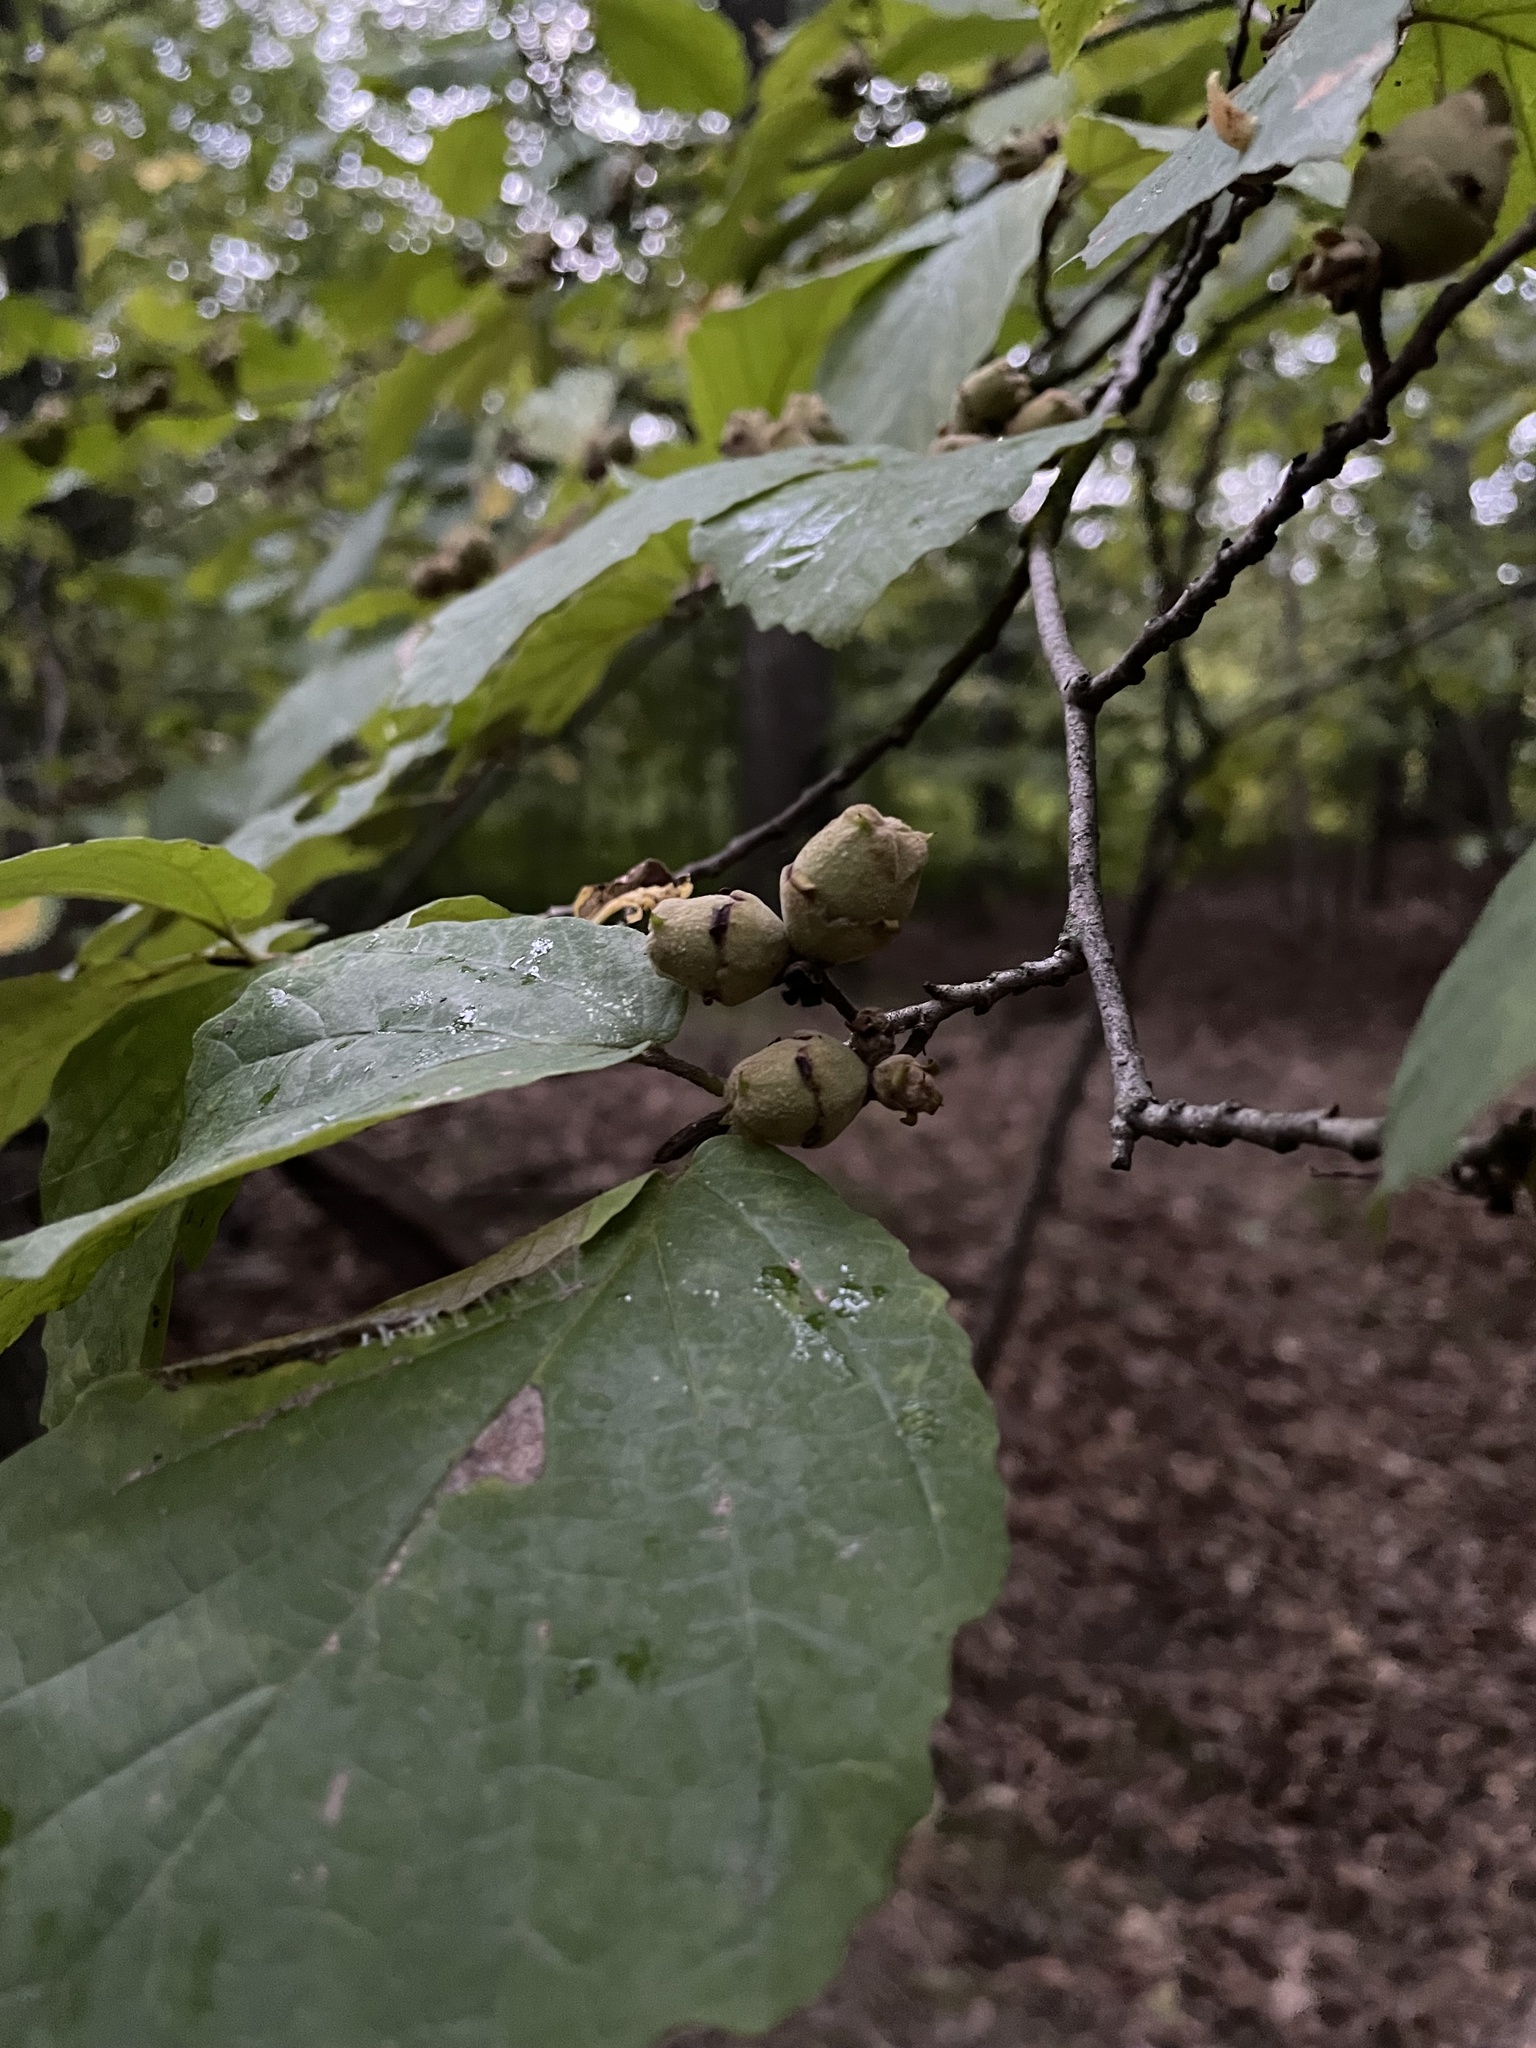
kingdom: Plantae
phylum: Tracheophyta
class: Magnoliopsida
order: Saxifragales
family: Hamamelidaceae
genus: Hamamelis
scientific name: Hamamelis virginiana
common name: Witch-hazel
